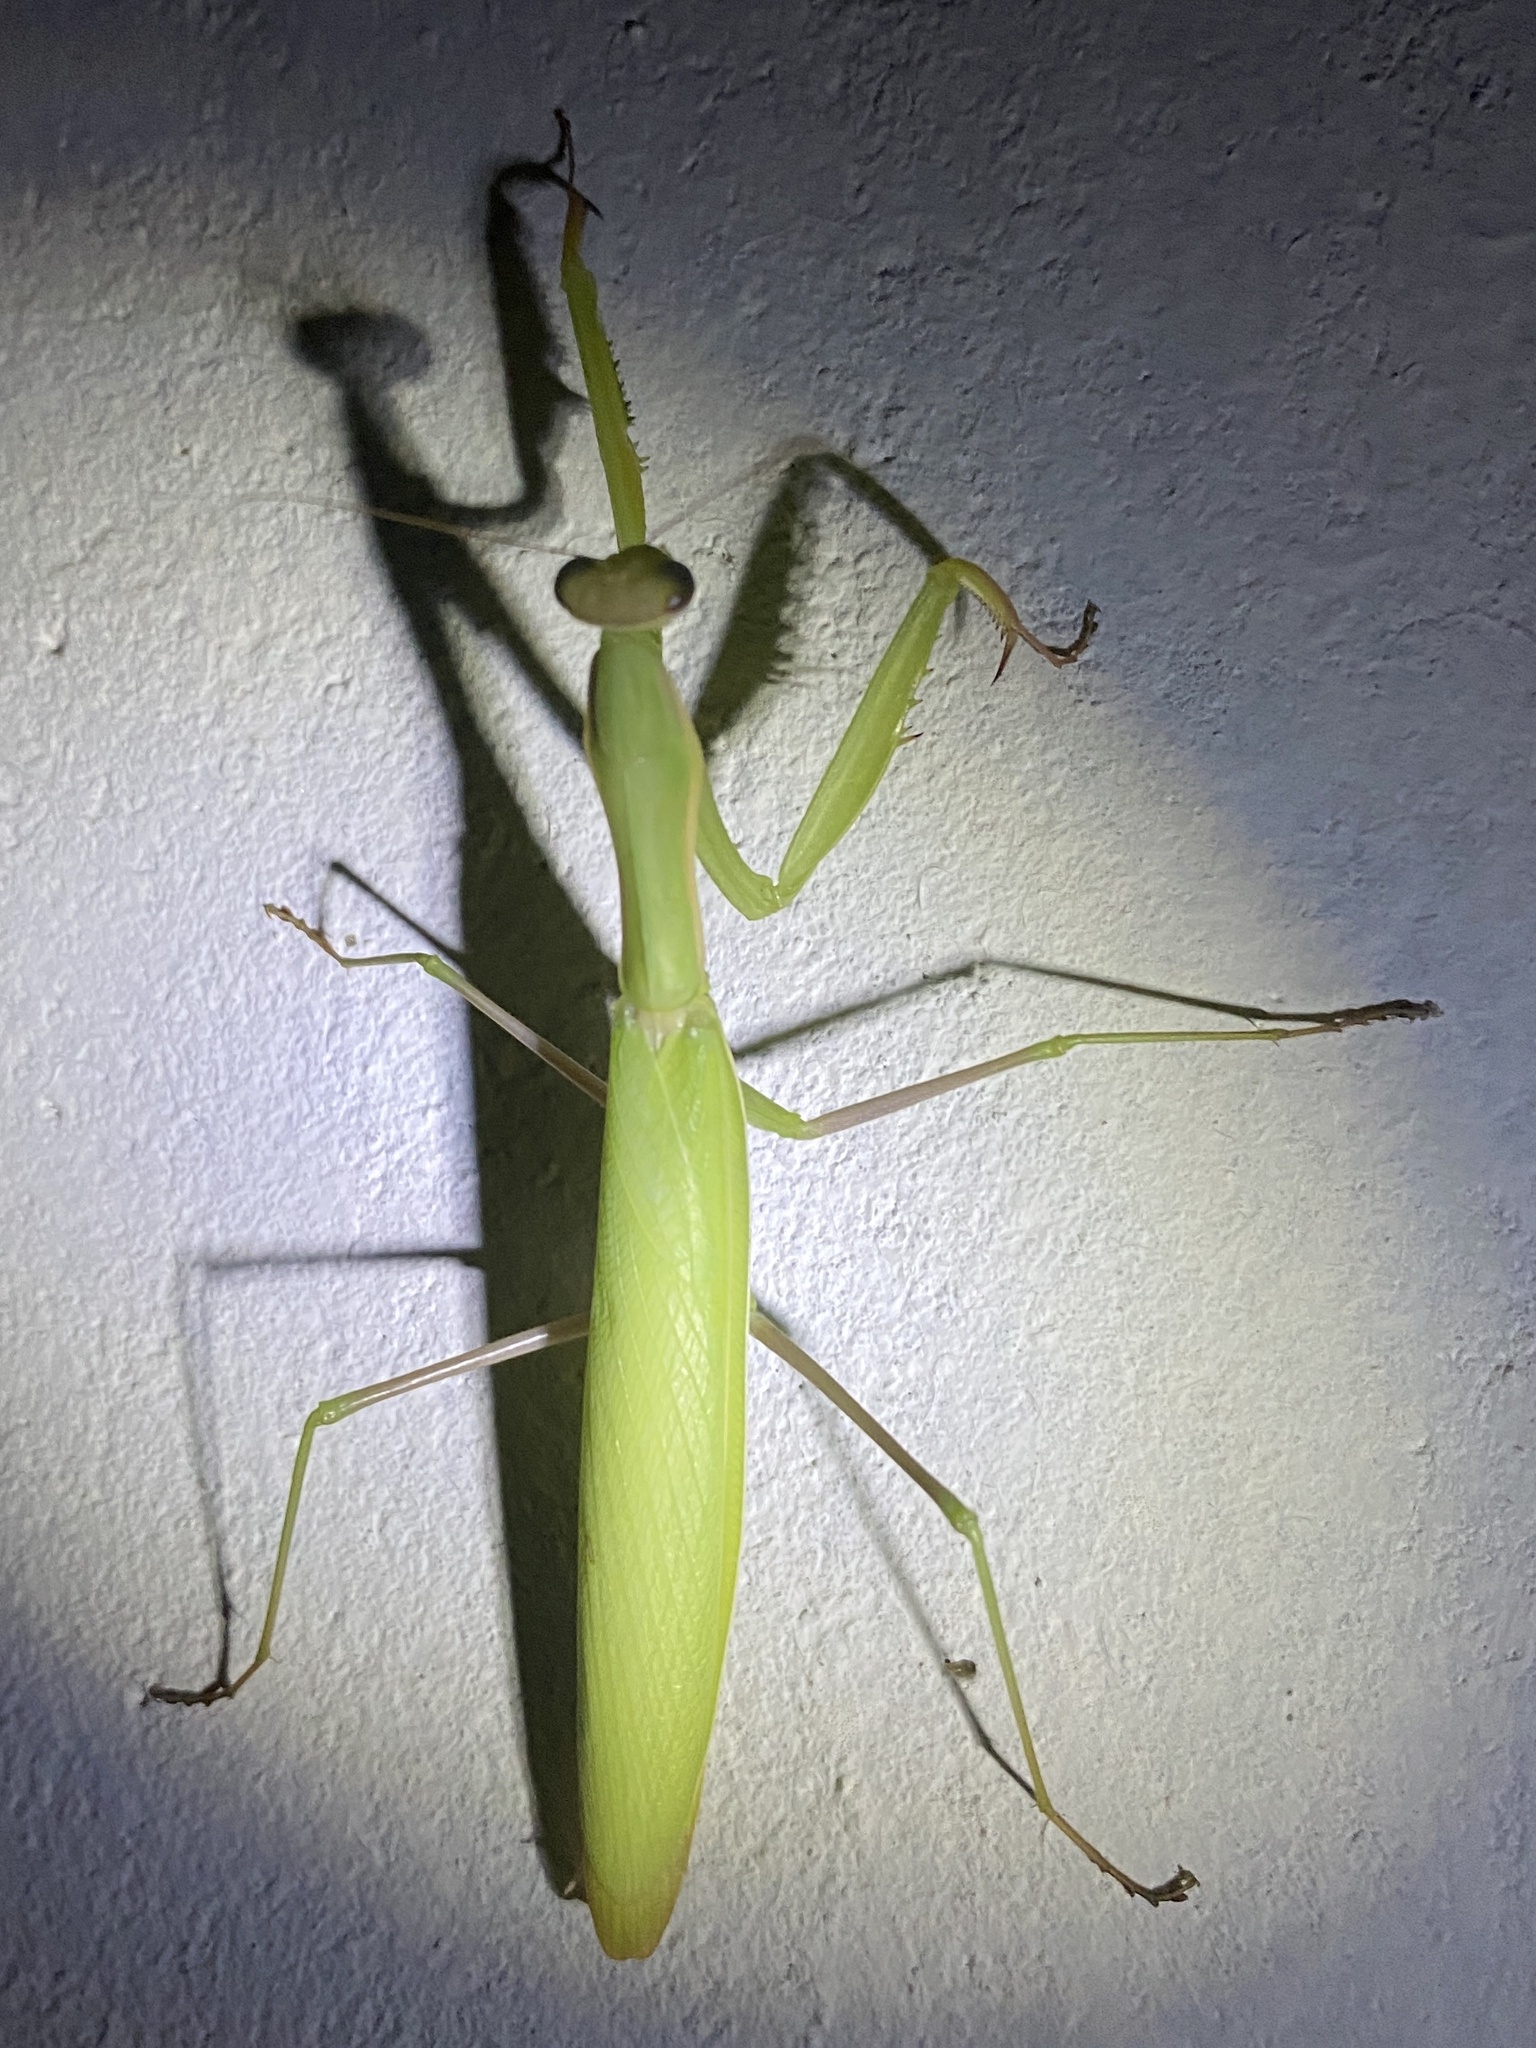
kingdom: Animalia
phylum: Arthropoda
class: Insecta
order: Mantodea
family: Mantidae
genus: Mantis
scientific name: Mantis religiosa
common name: Praying mantis
